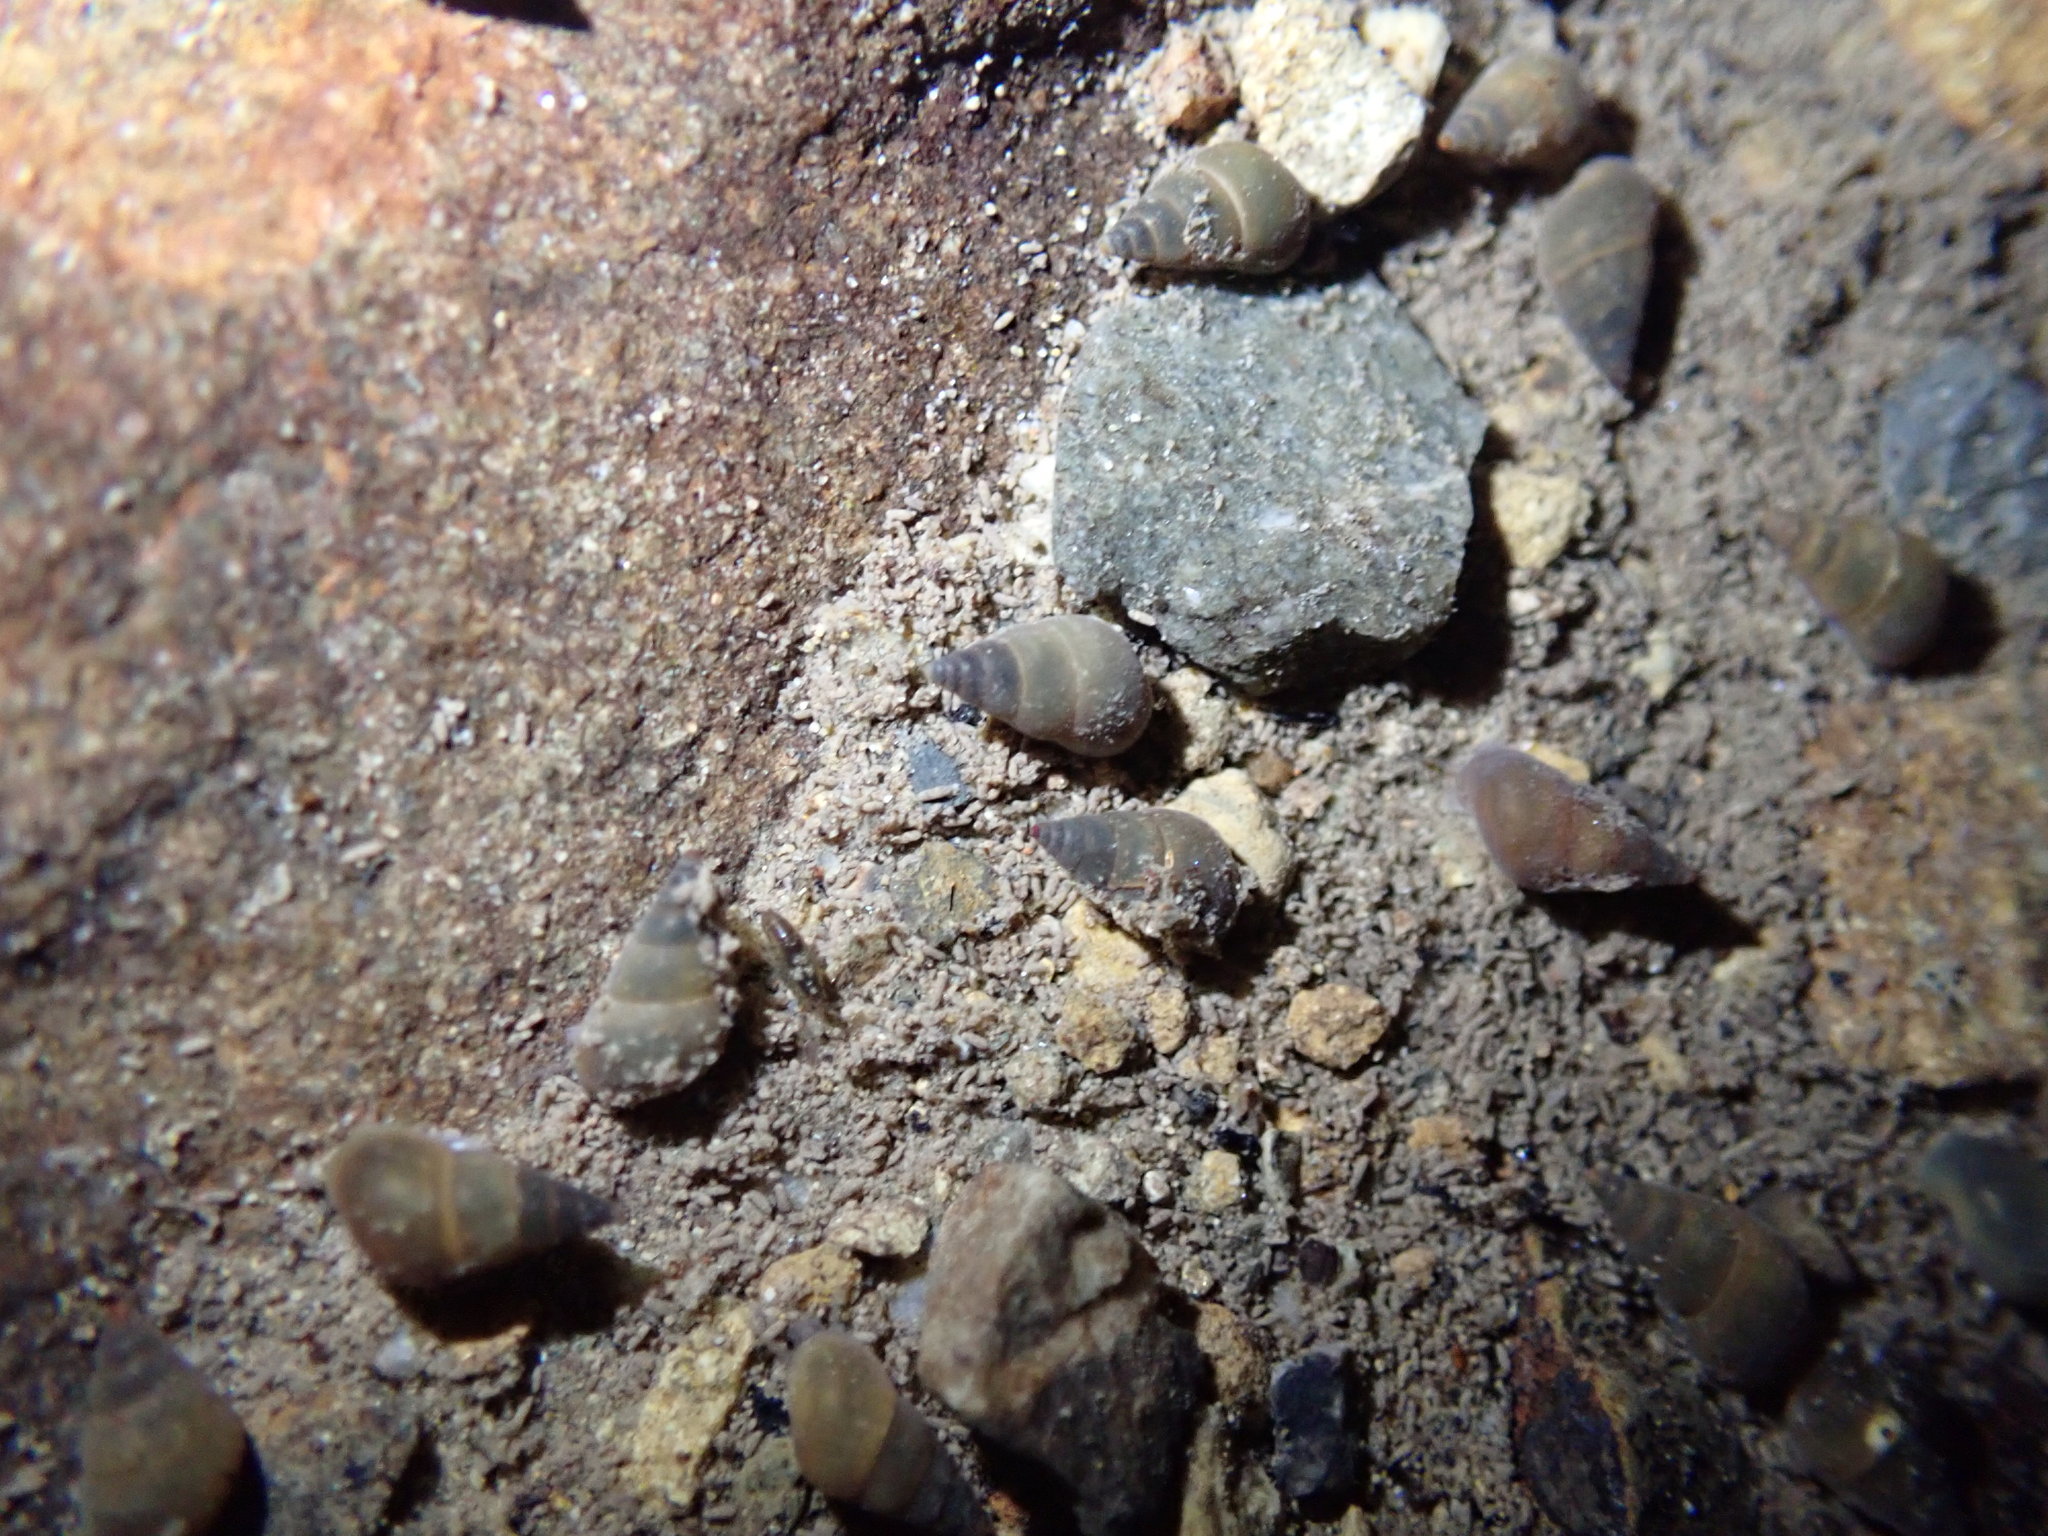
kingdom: Animalia
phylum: Mollusca
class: Gastropoda
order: Littorinimorpha
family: Tateidae
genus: Potamopyrgus
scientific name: Potamopyrgus antipodarum
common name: Jenkins' spire snail
